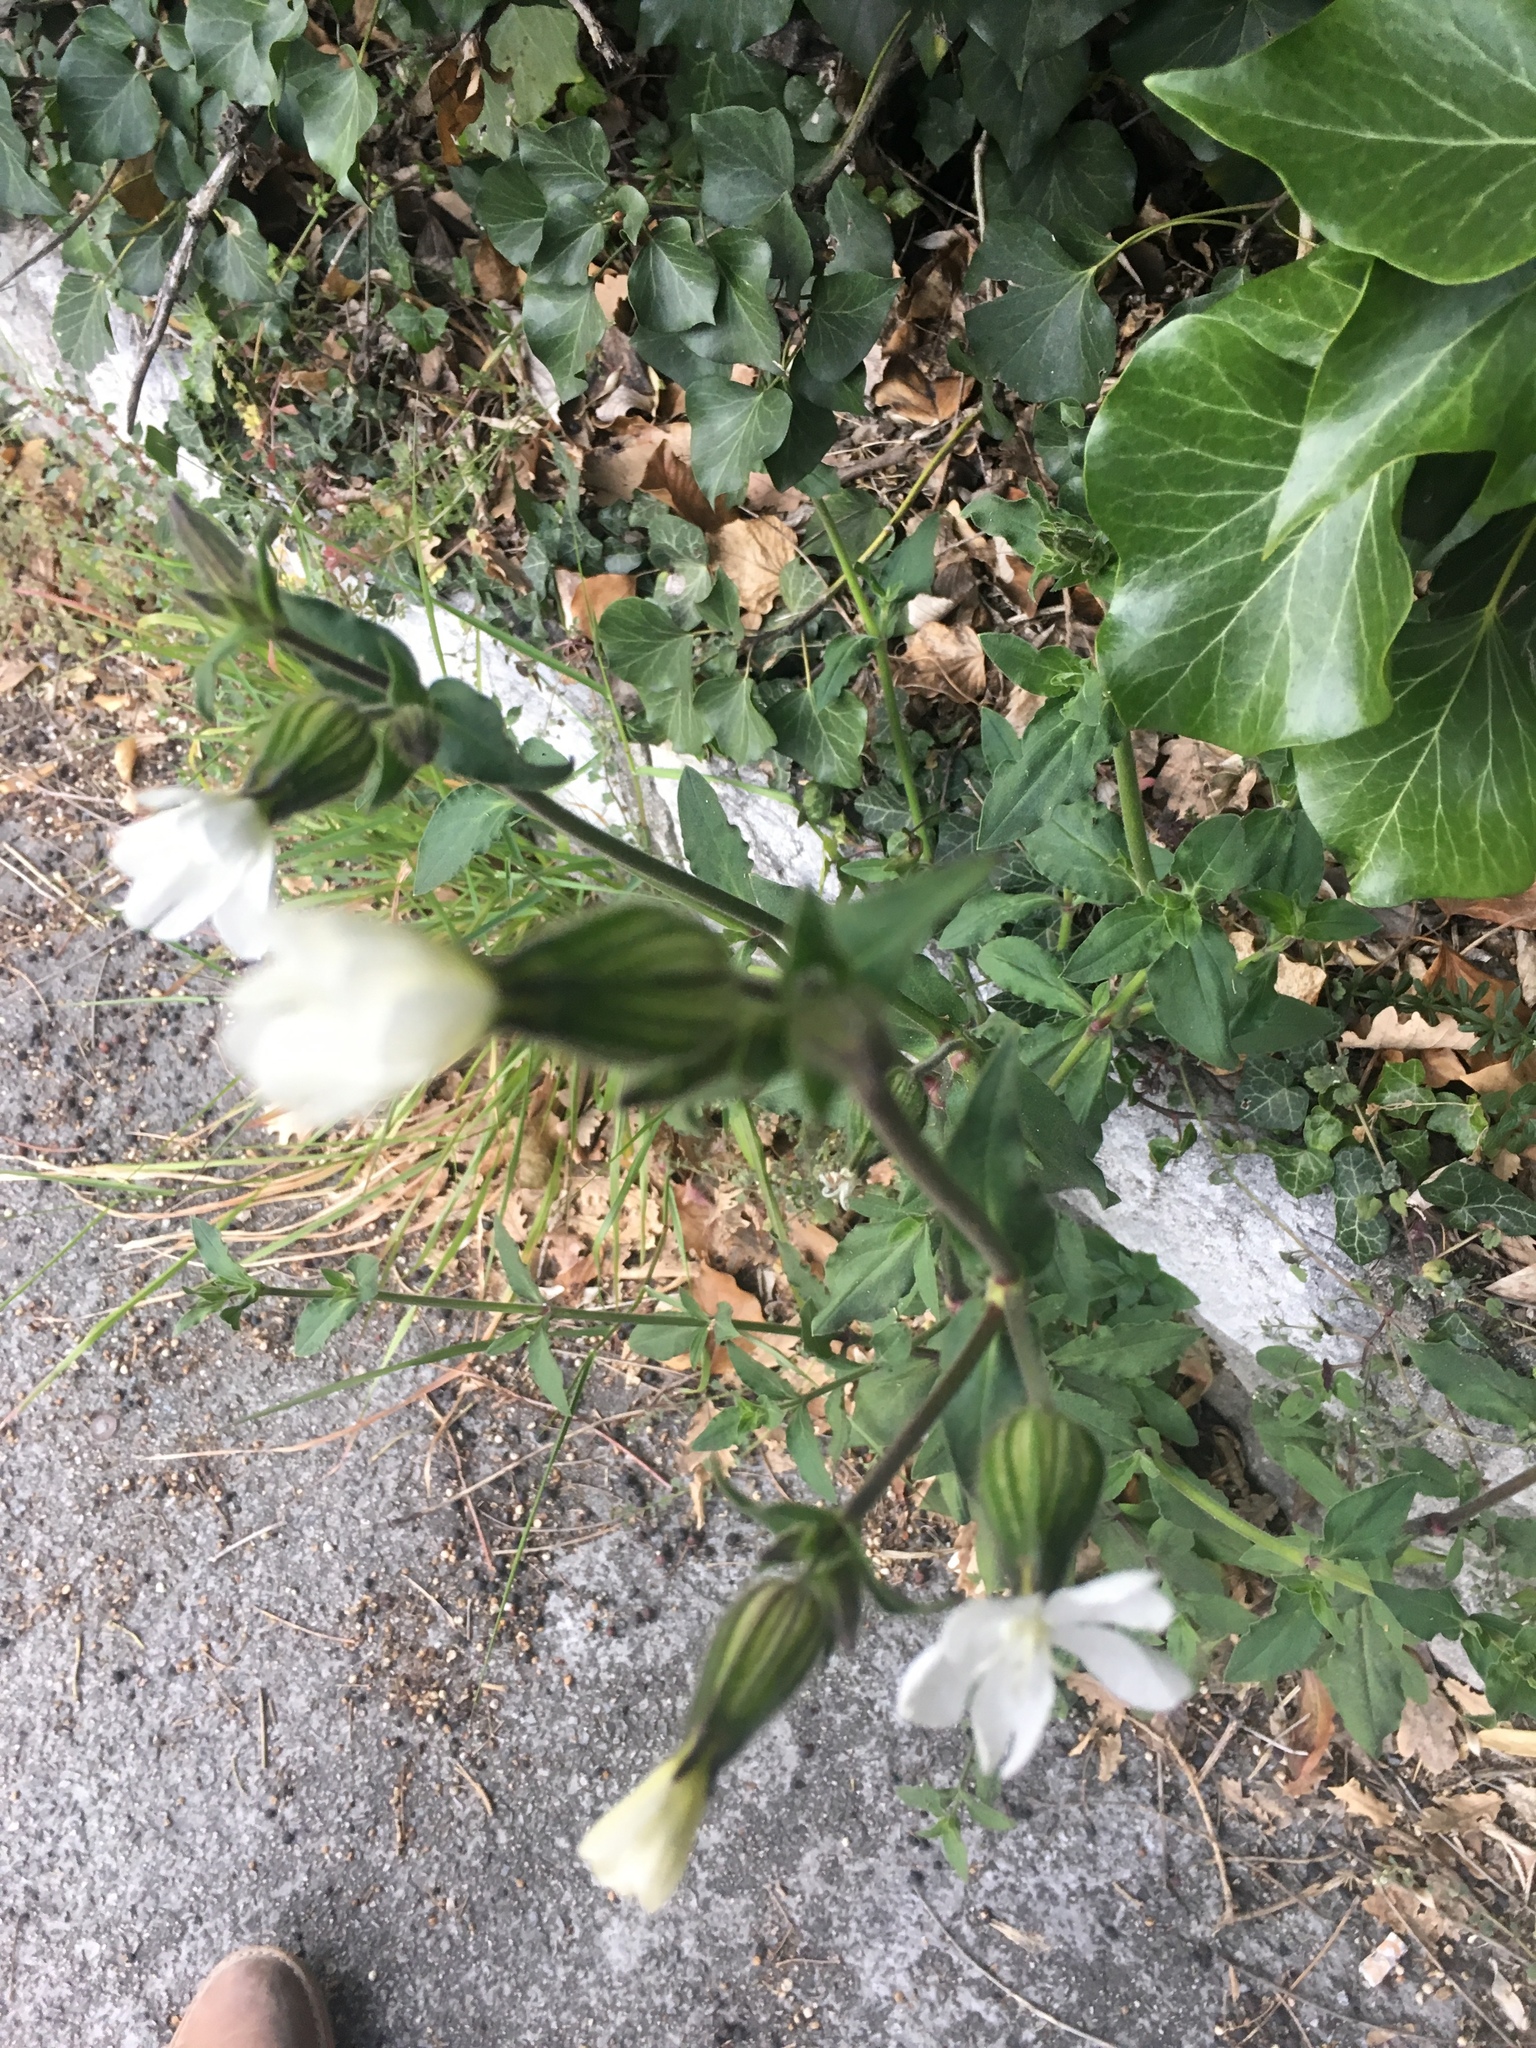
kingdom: Plantae
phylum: Tracheophyta
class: Magnoliopsida
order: Caryophyllales
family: Caryophyllaceae
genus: Silene
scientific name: Silene latifolia
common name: White campion
